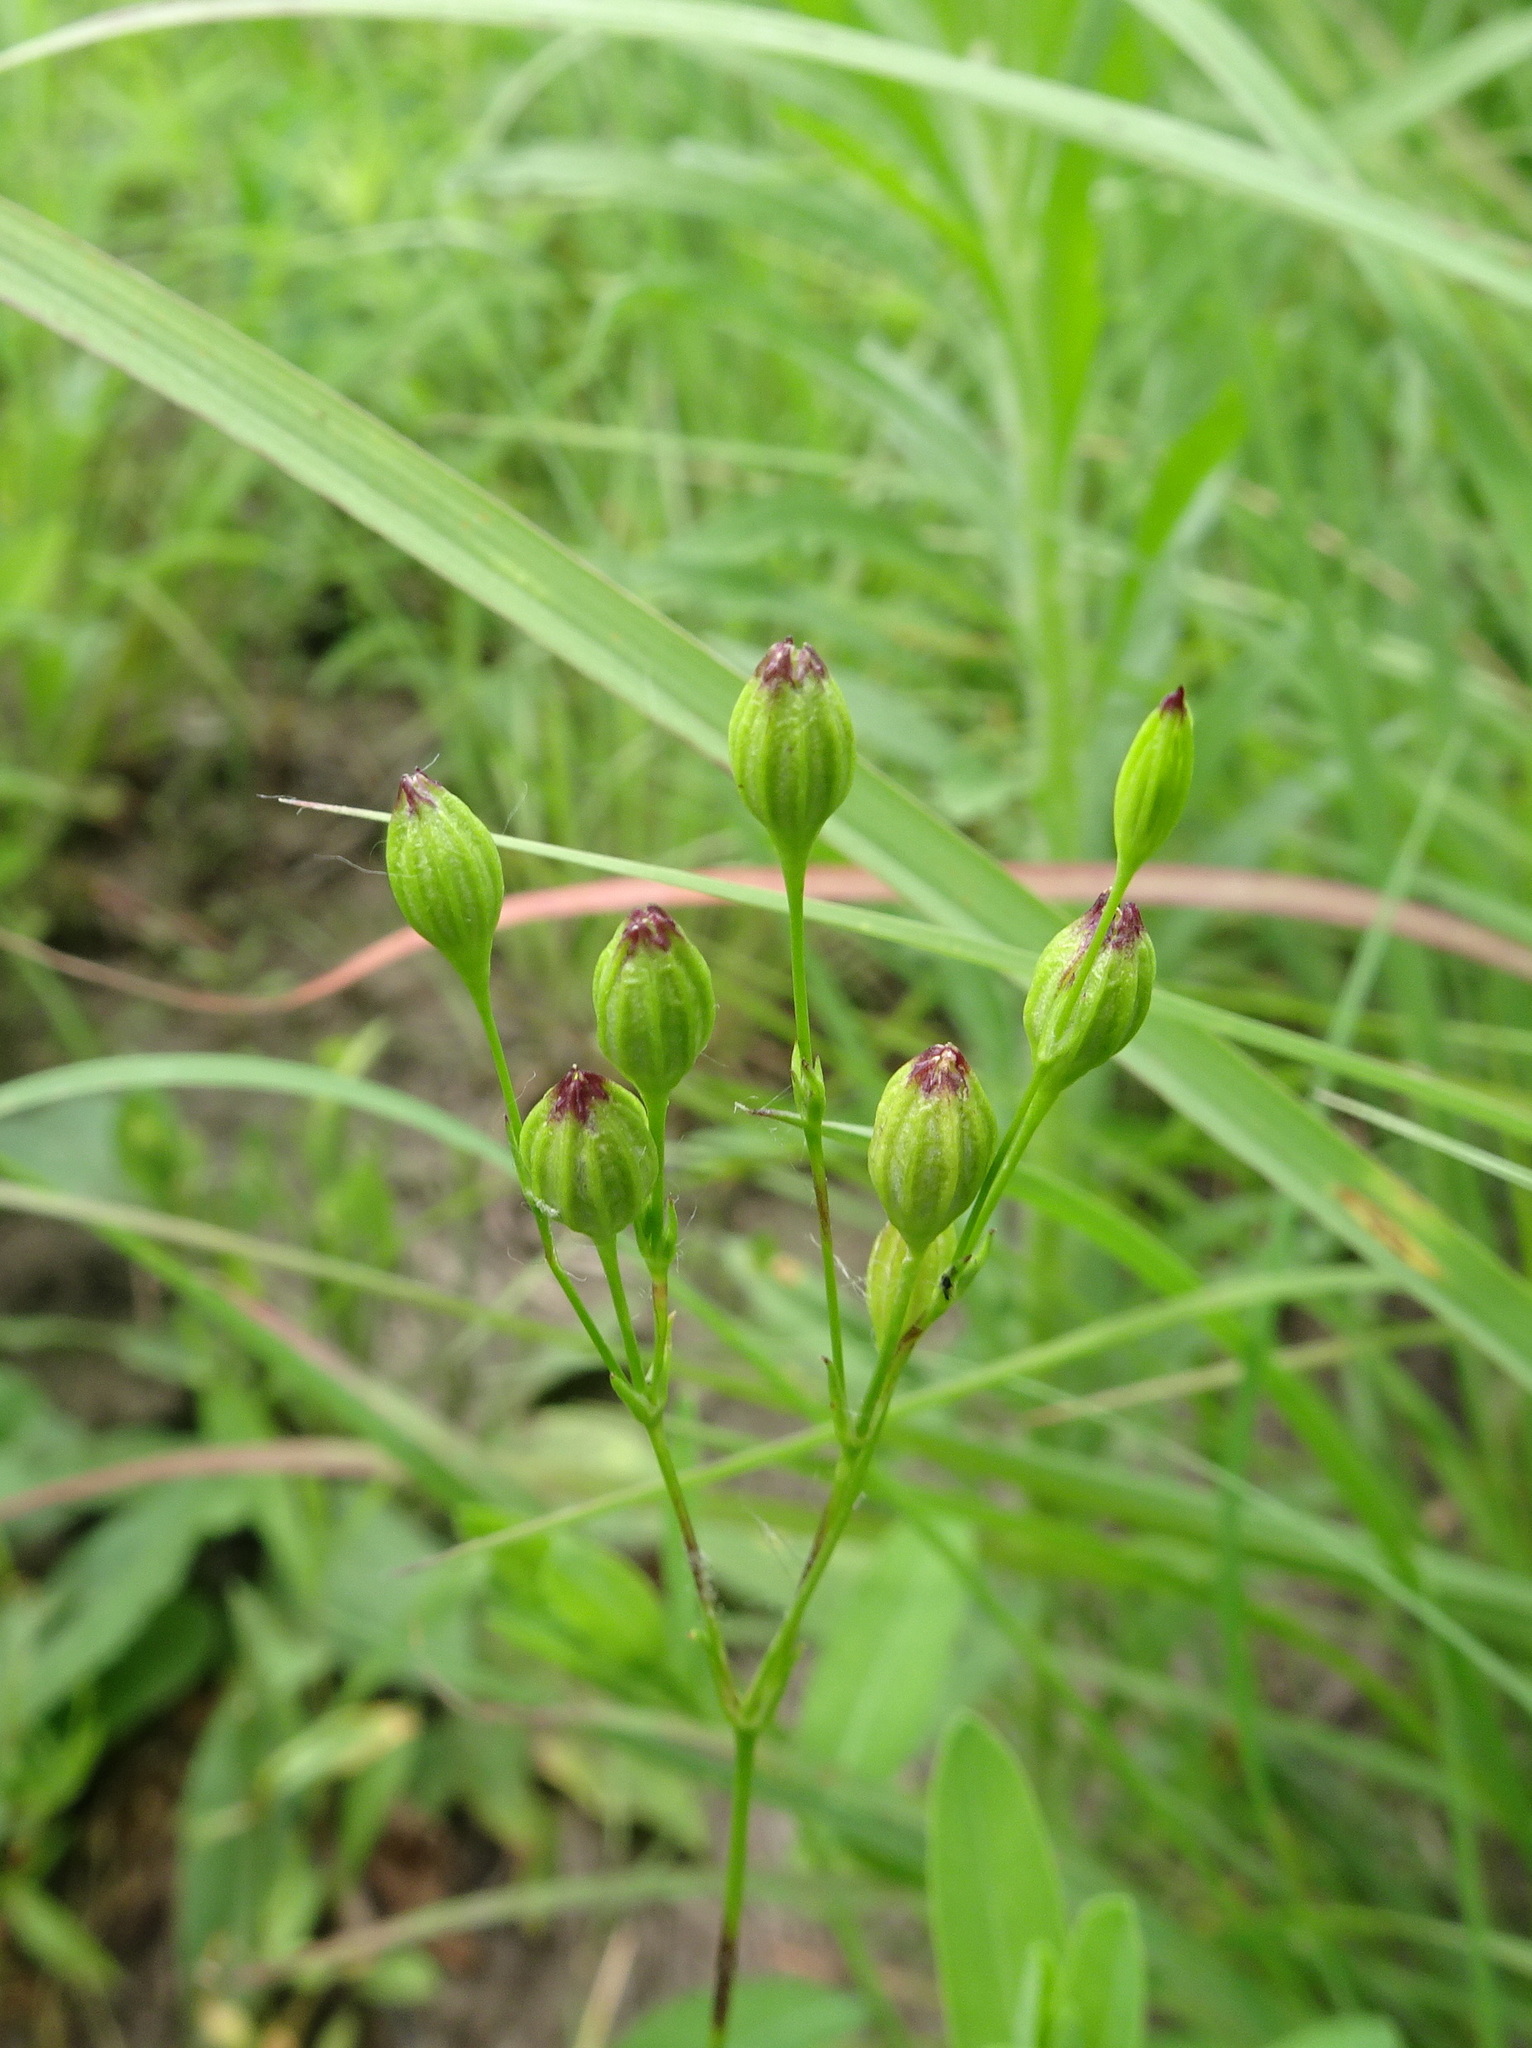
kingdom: Plantae
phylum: Tracheophyta
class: Magnoliopsida
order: Caryophyllales
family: Caryophyllaceae
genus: Silene
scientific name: Silene antirrhina
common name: Sleepy catchfly
